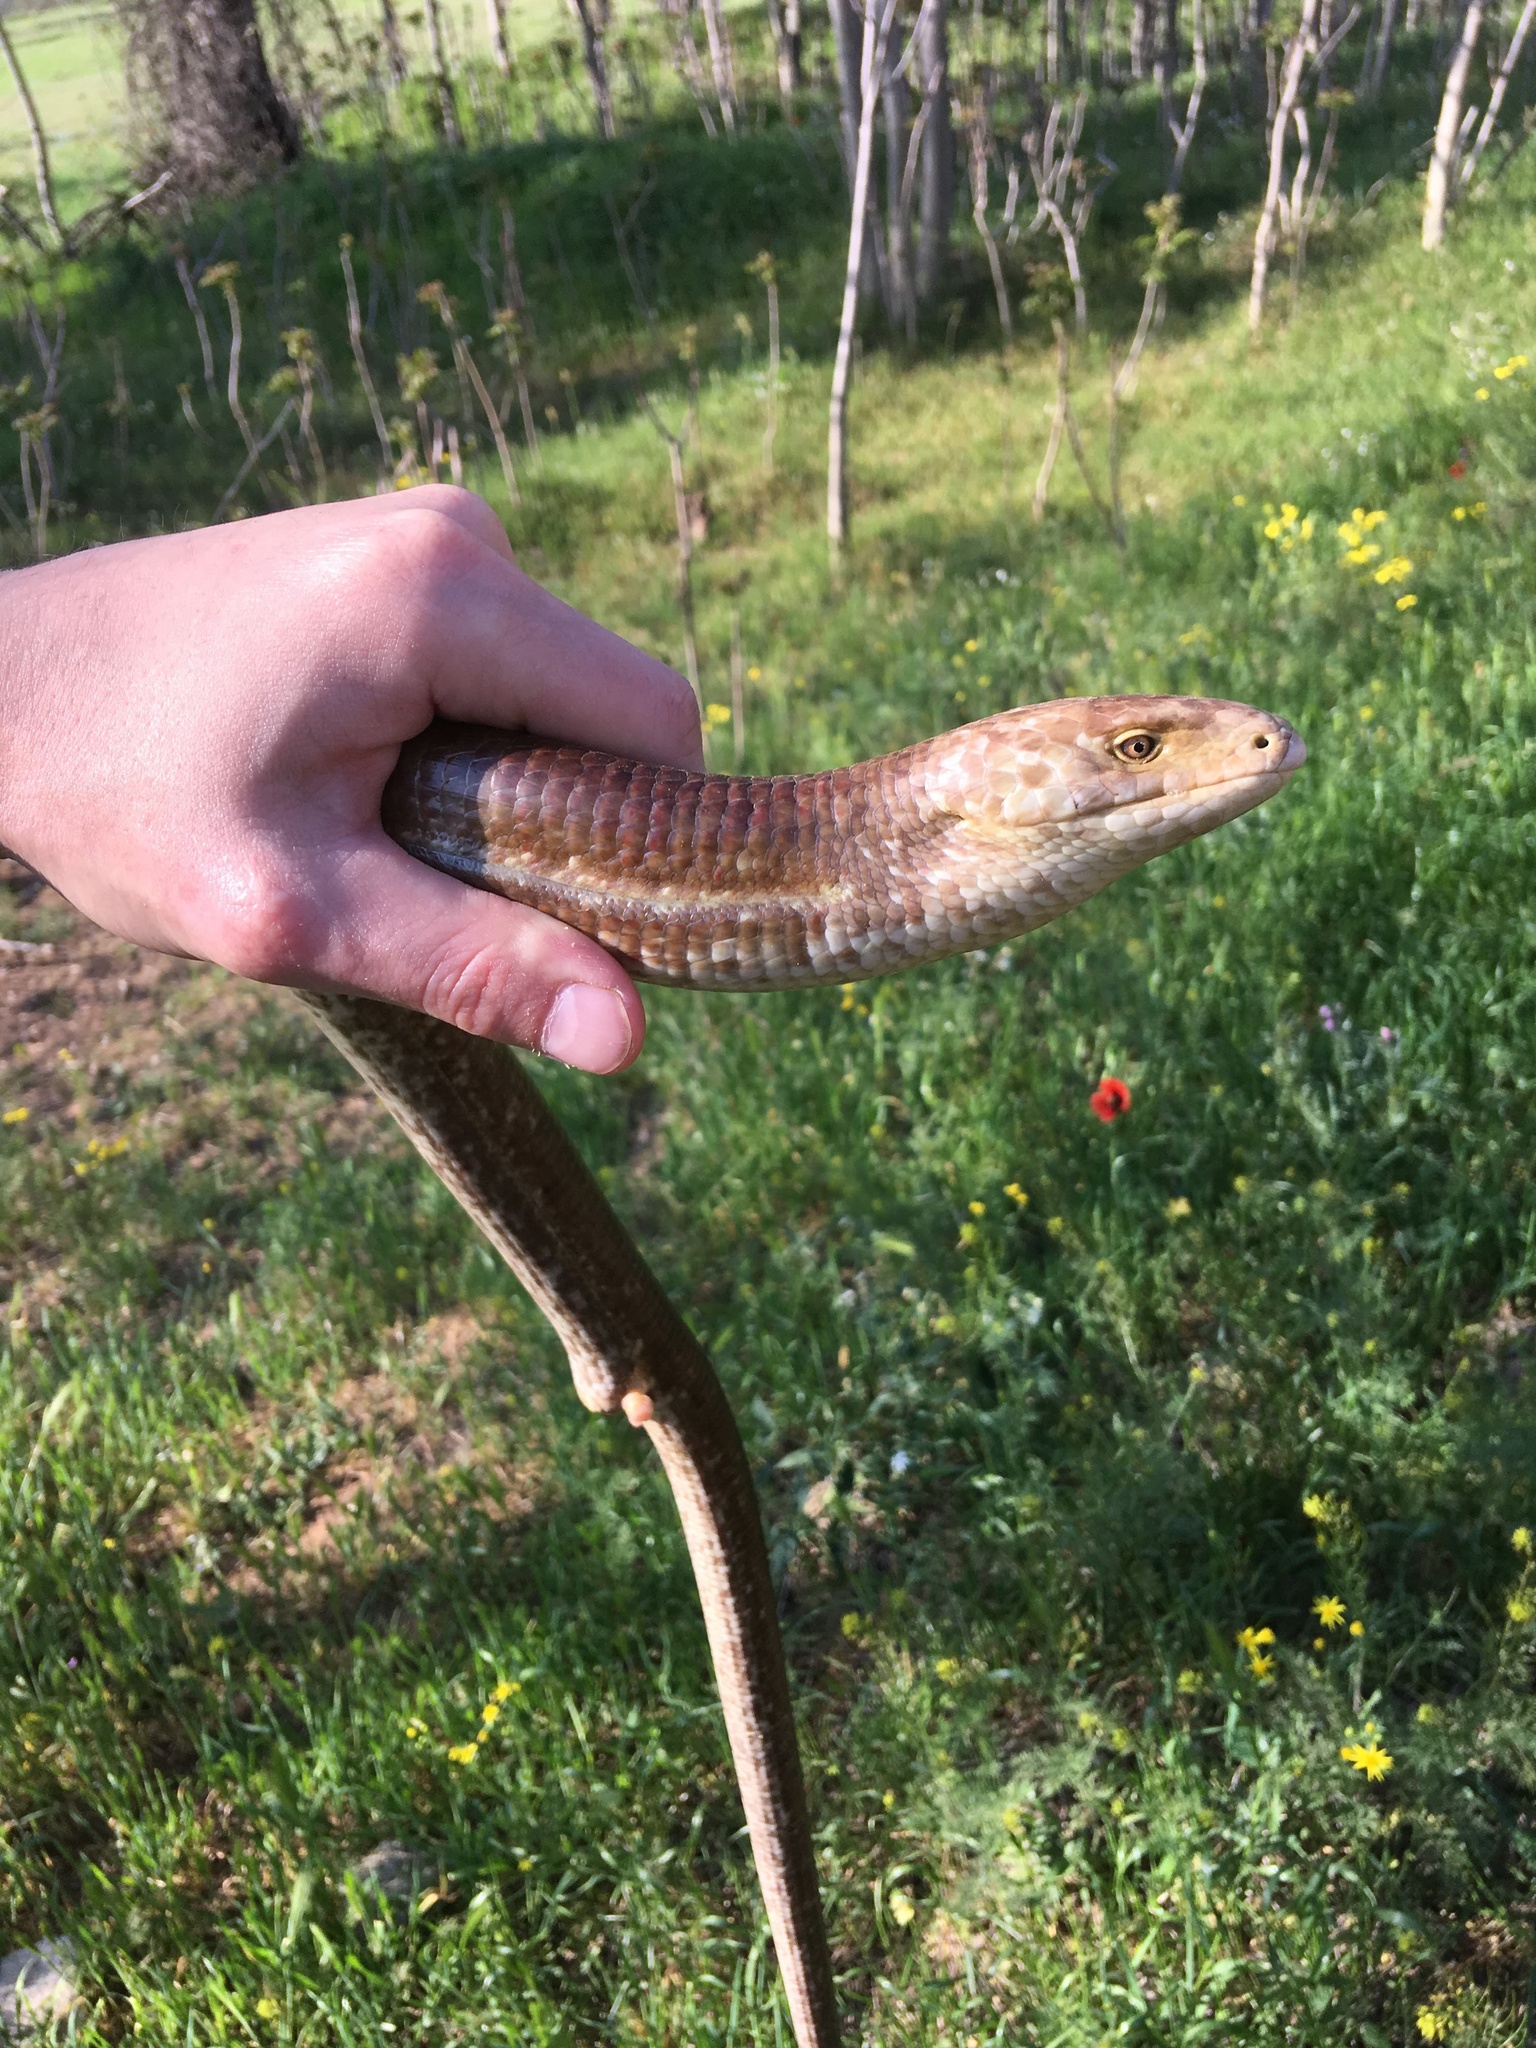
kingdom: Animalia
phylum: Chordata
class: Squamata
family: Anguidae
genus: Pseudopus
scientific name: Pseudopus apodus
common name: European glass lizard
